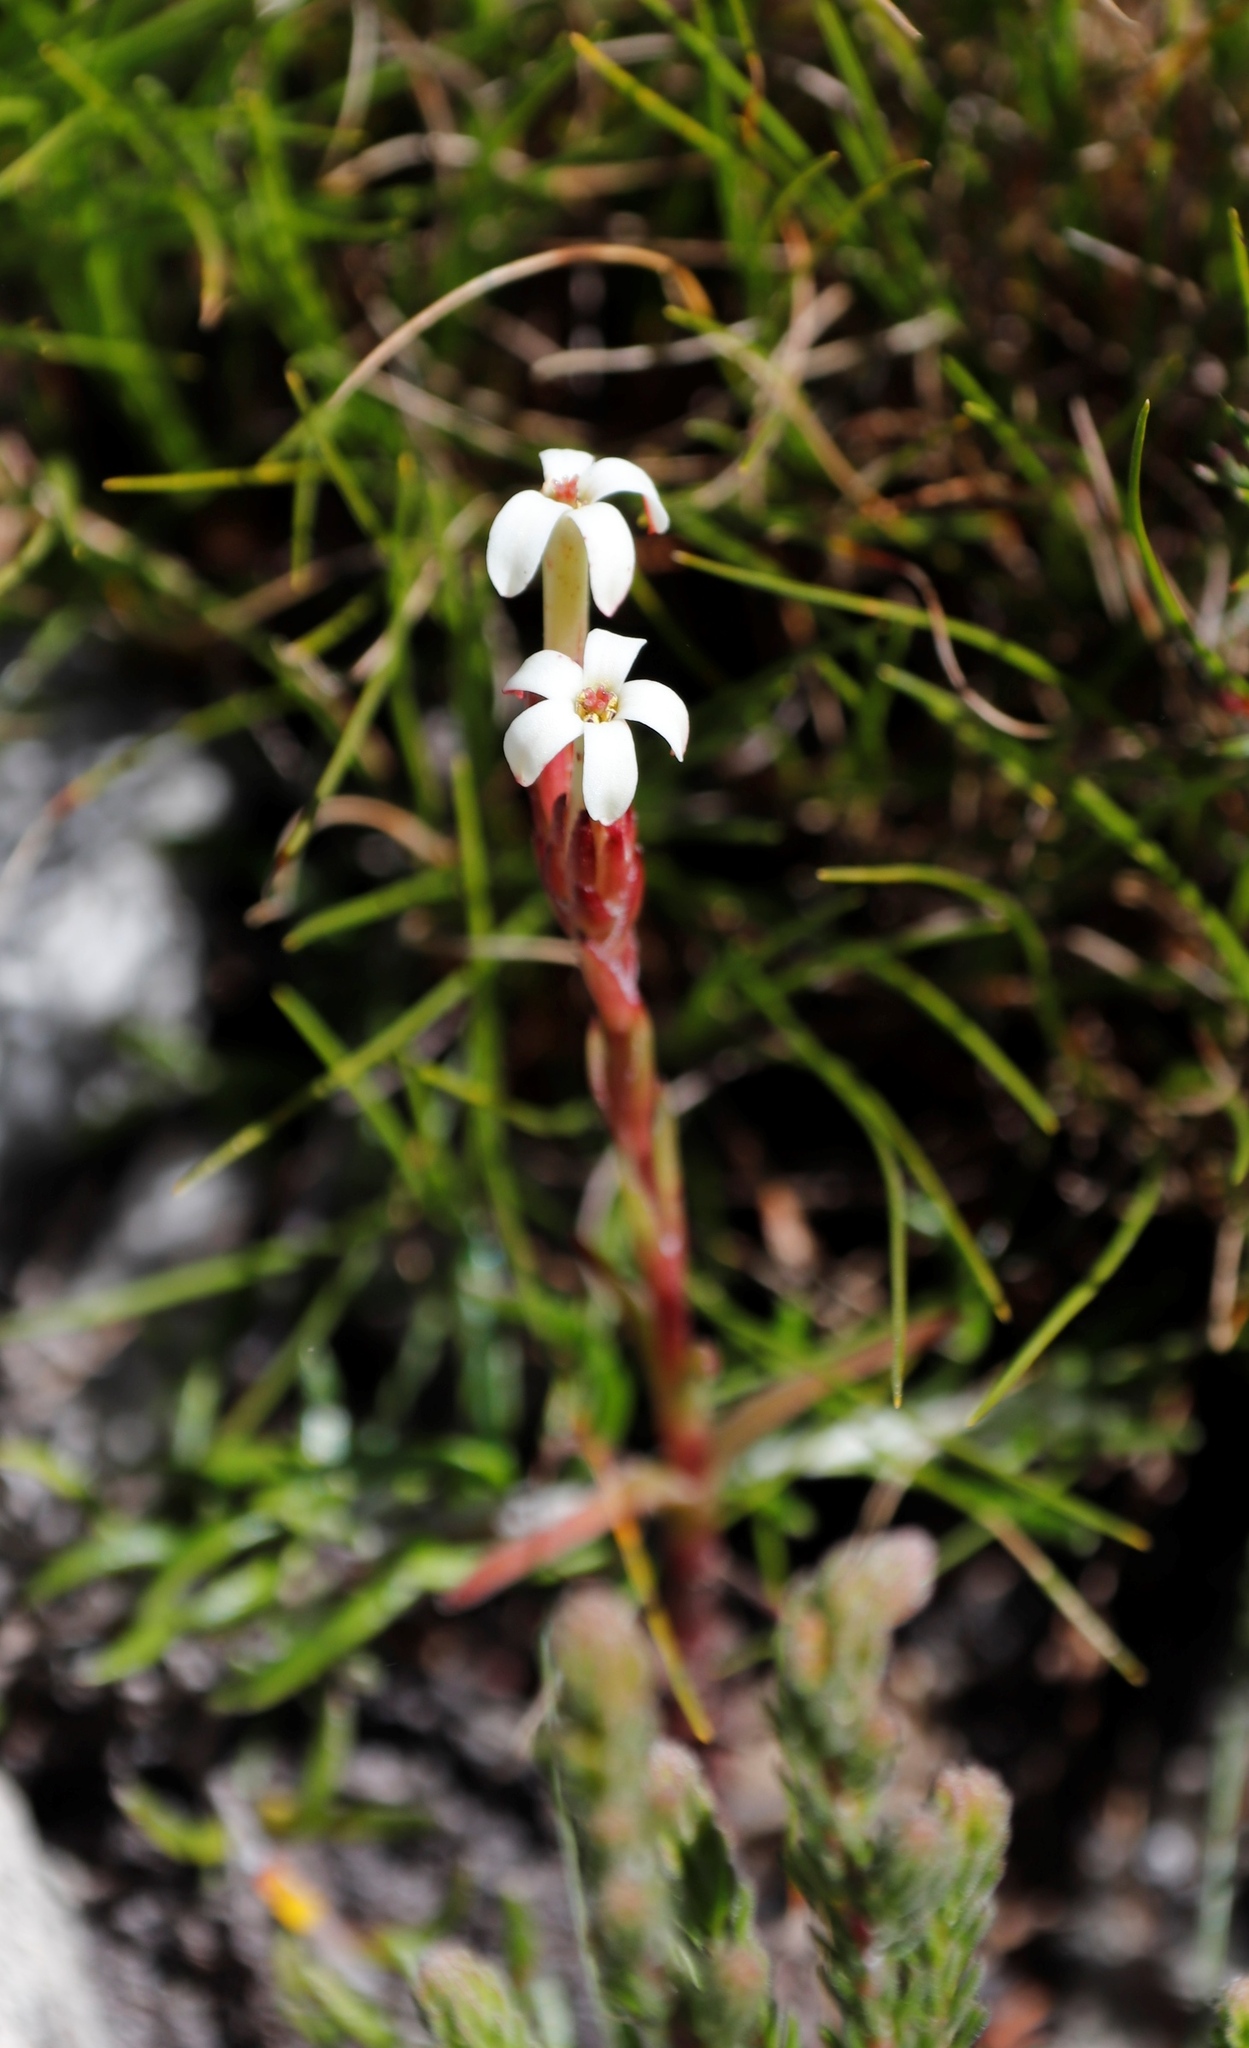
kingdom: Plantae
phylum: Tracheophyta
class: Magnoliopsida
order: Saxifragales
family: Crassulaceae
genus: Crassula
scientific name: Crassula fascicularis
